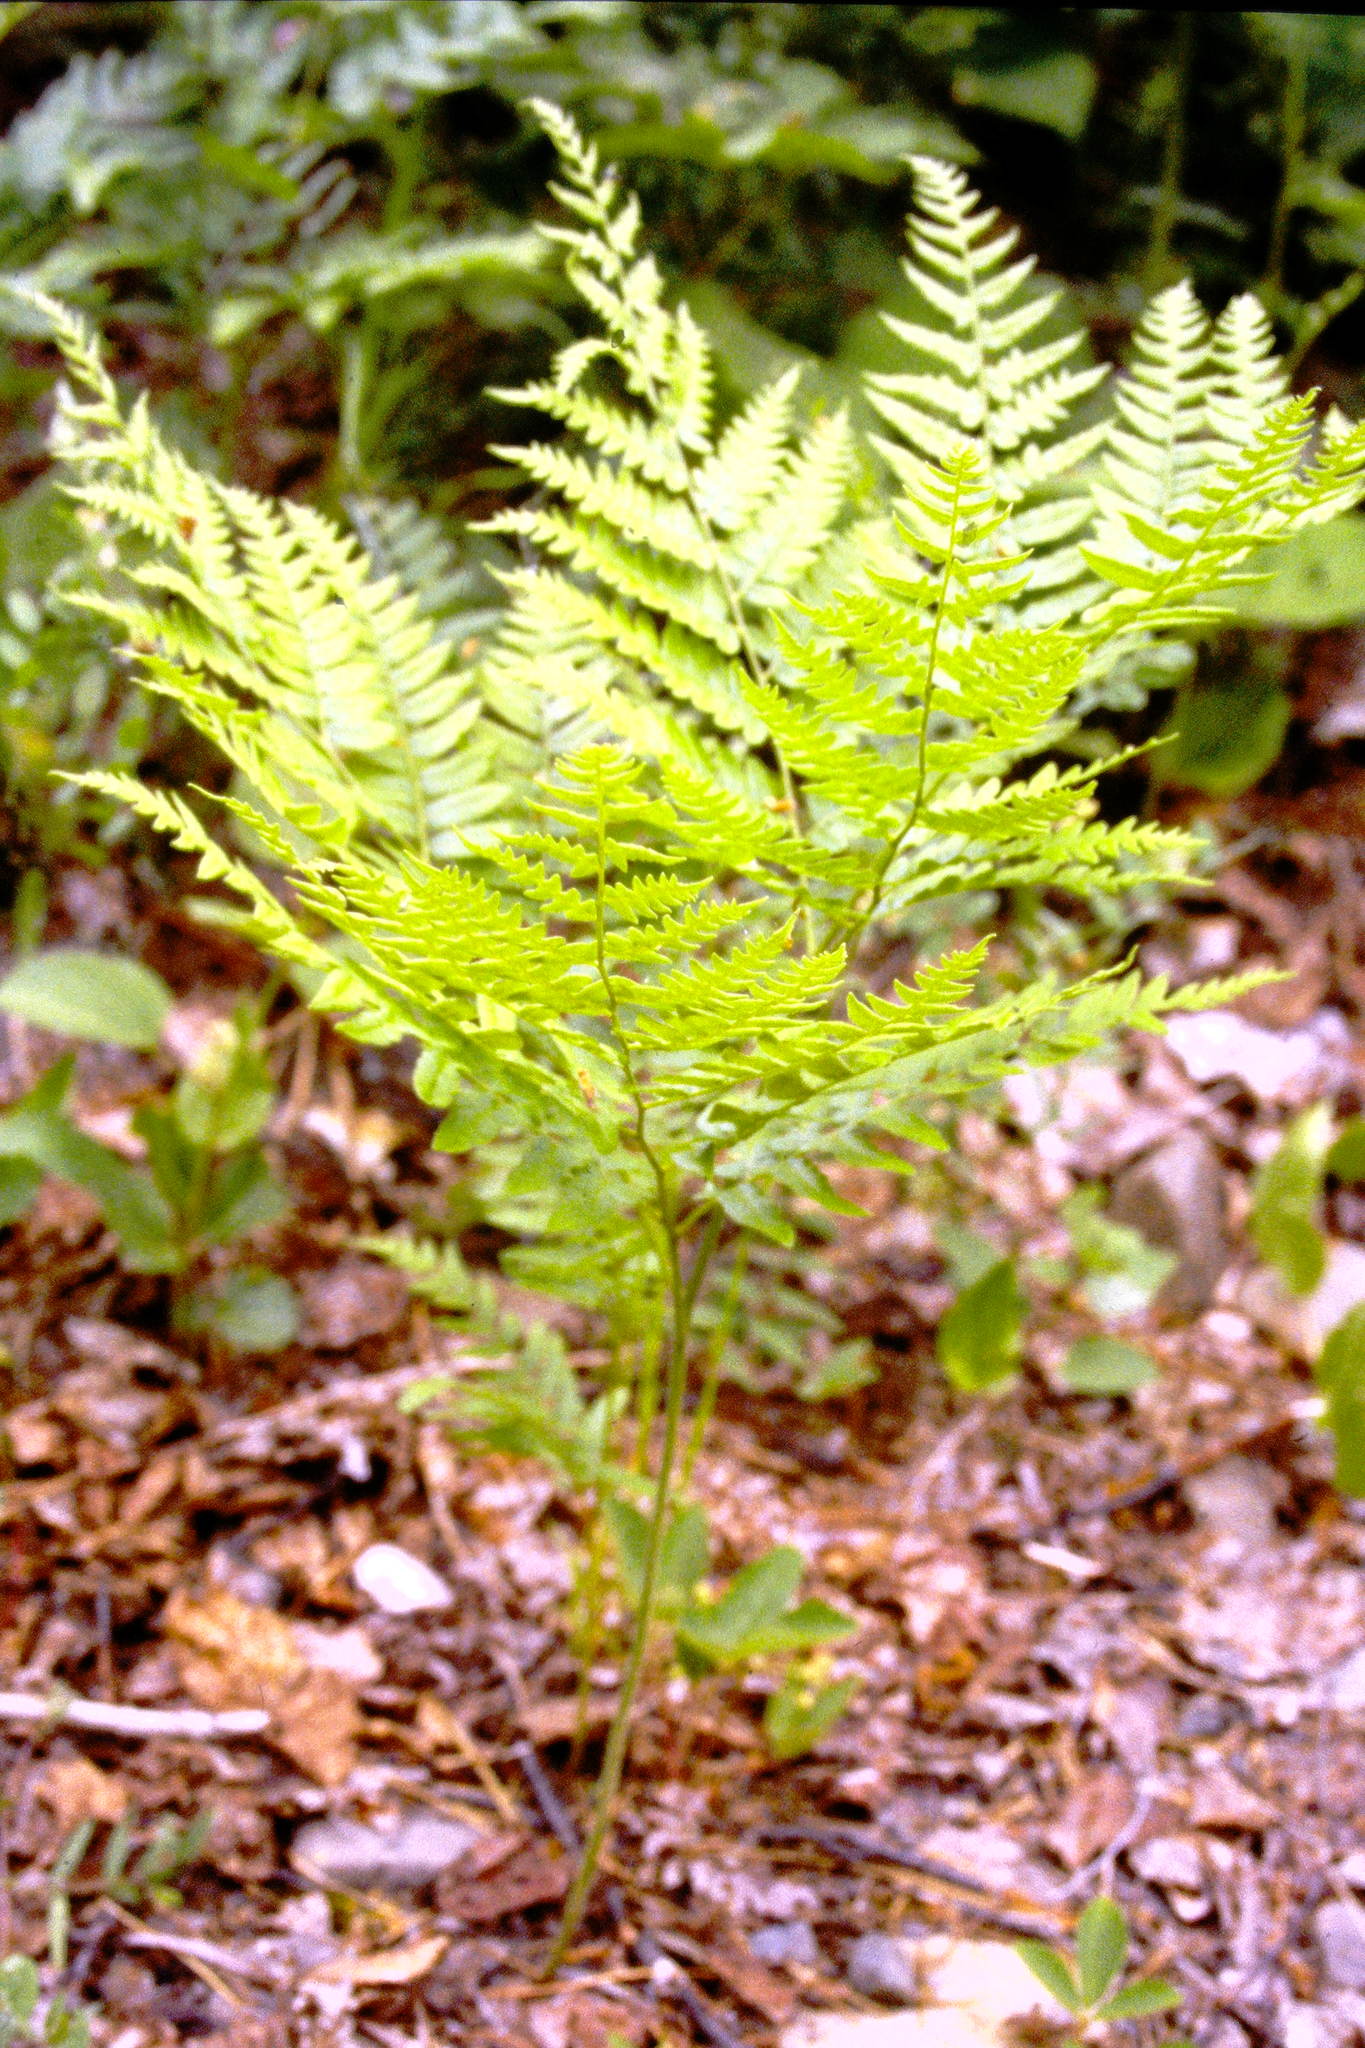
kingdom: Plantae
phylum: Tracheophyta
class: Polypodiopsida
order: Polypodiales
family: Dennstaedtiaceae
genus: Pteridium
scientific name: Pteridium aquilinum
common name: Bracken
